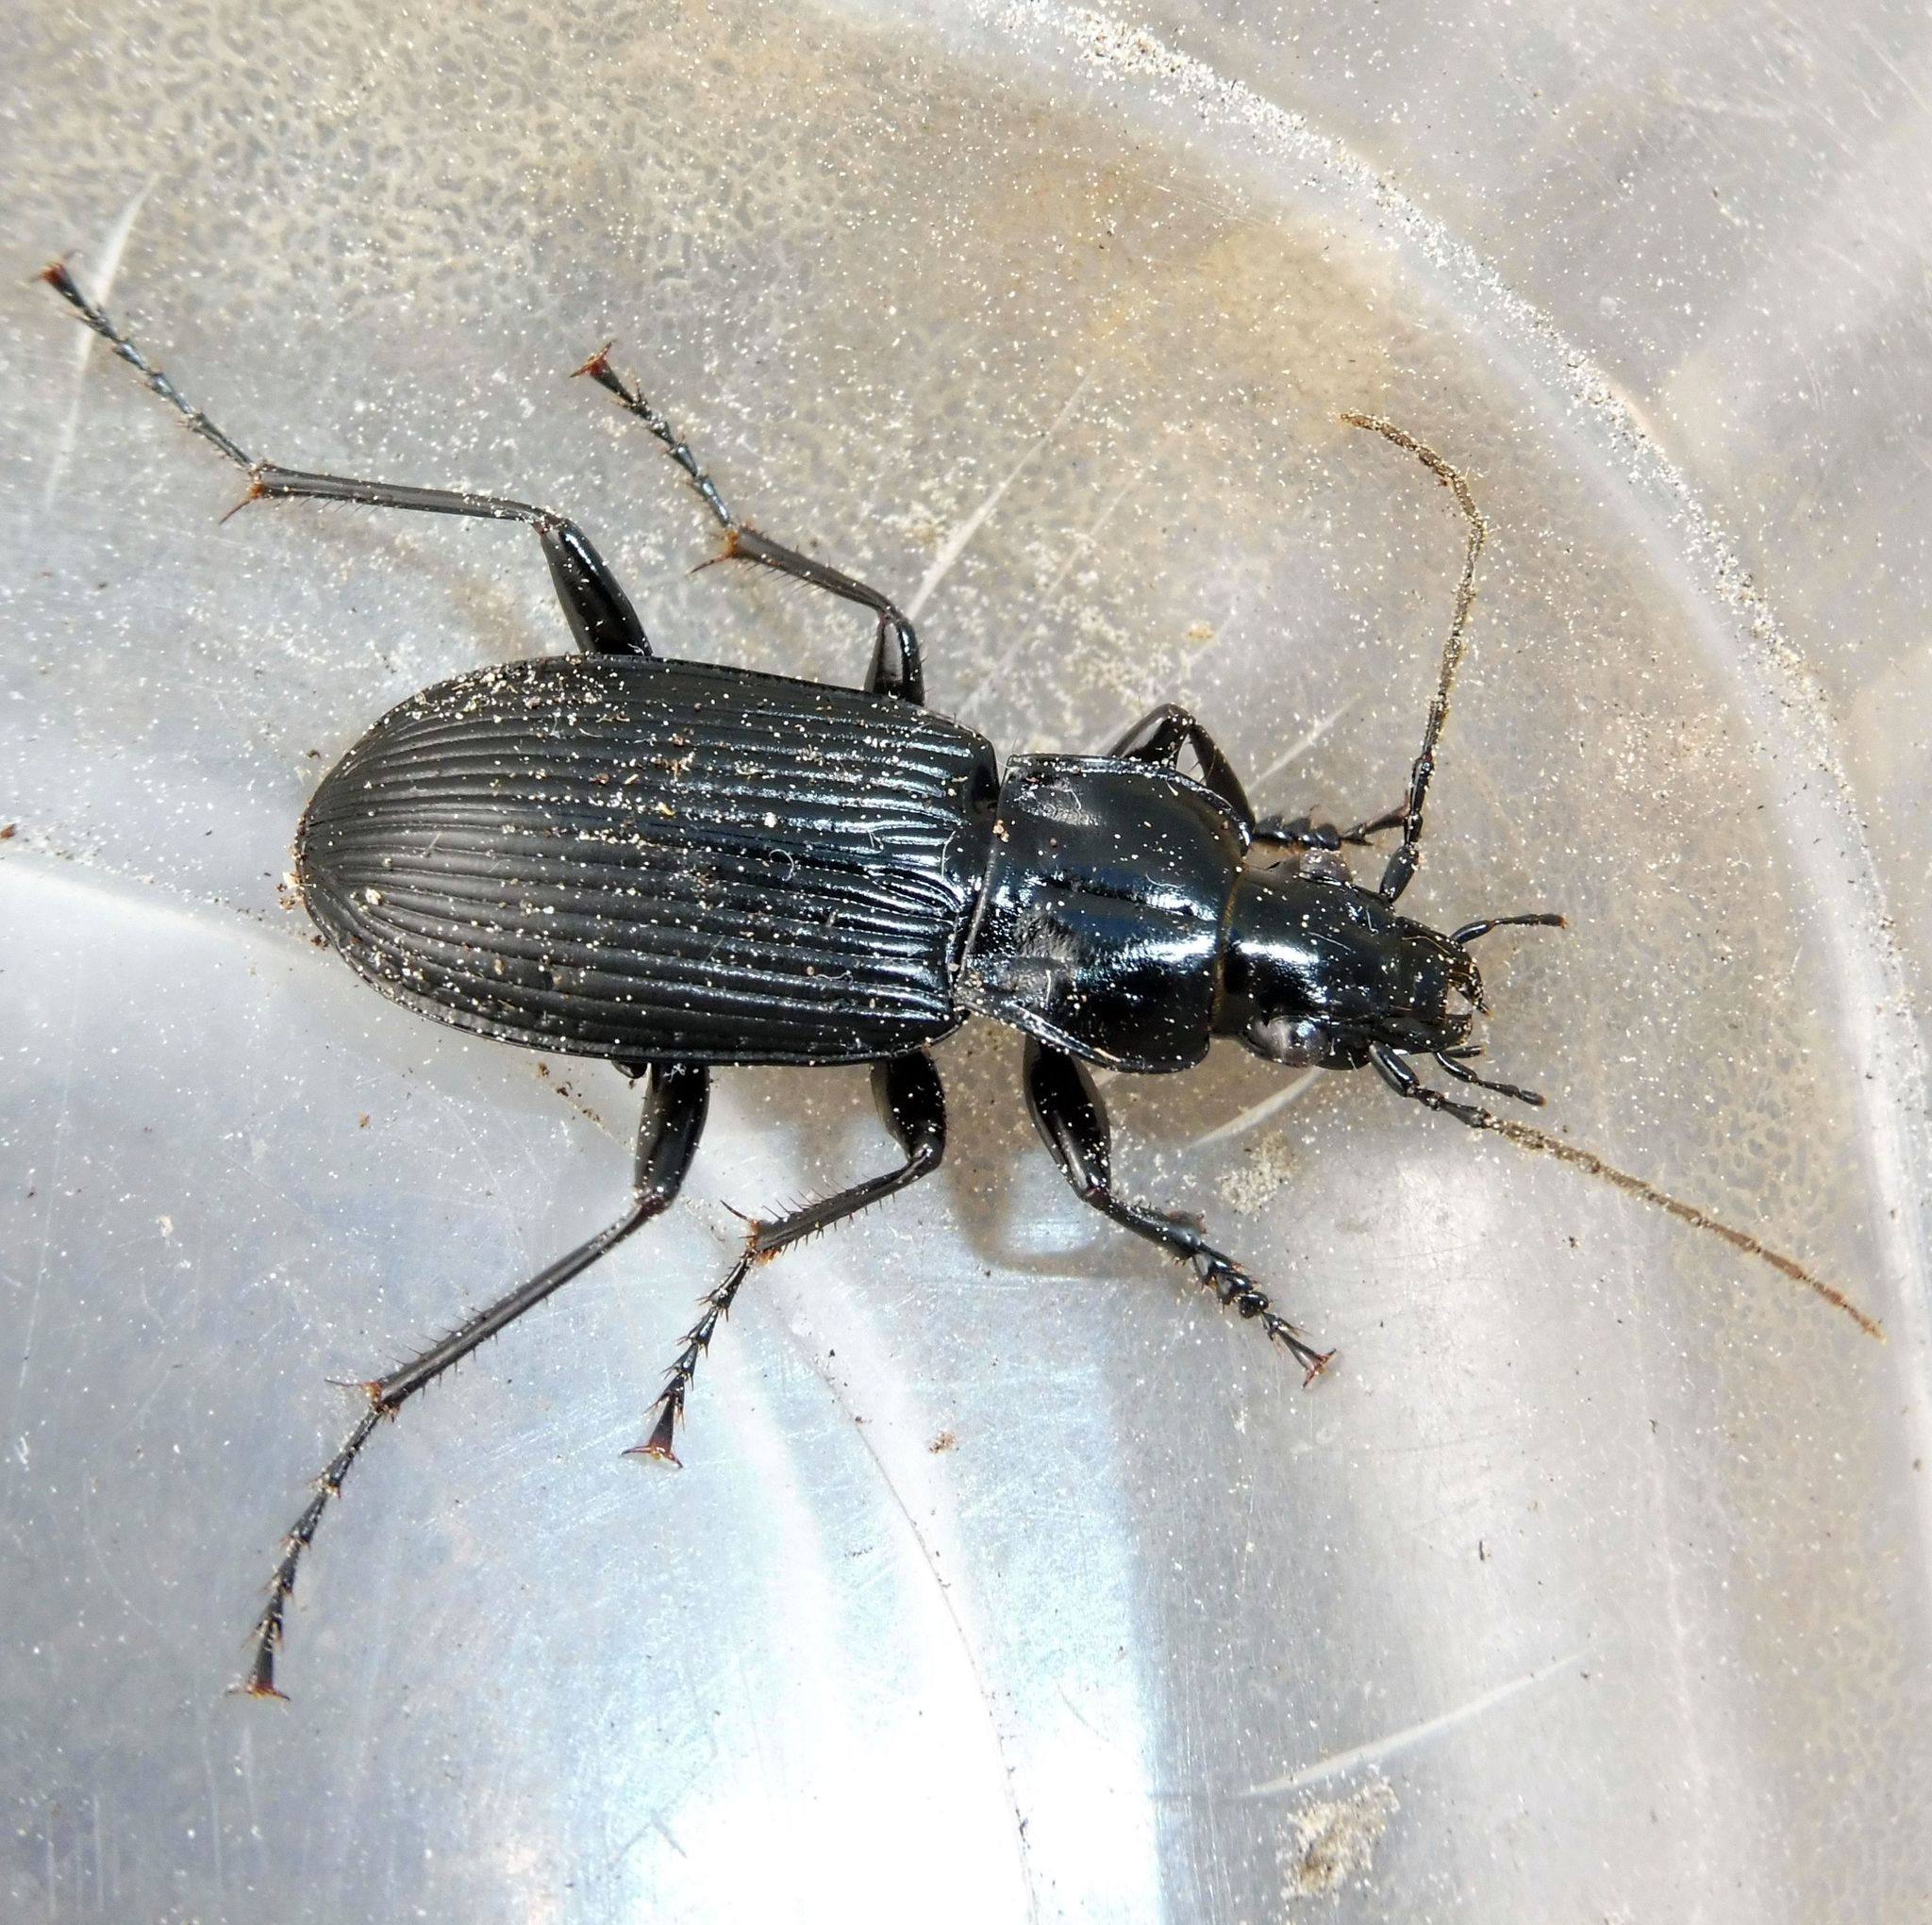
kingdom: Animalia
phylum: Arthropoda
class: Insecta
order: Coleoptera
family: Carabidae
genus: Pterostichus
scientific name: Pterostichus niger
